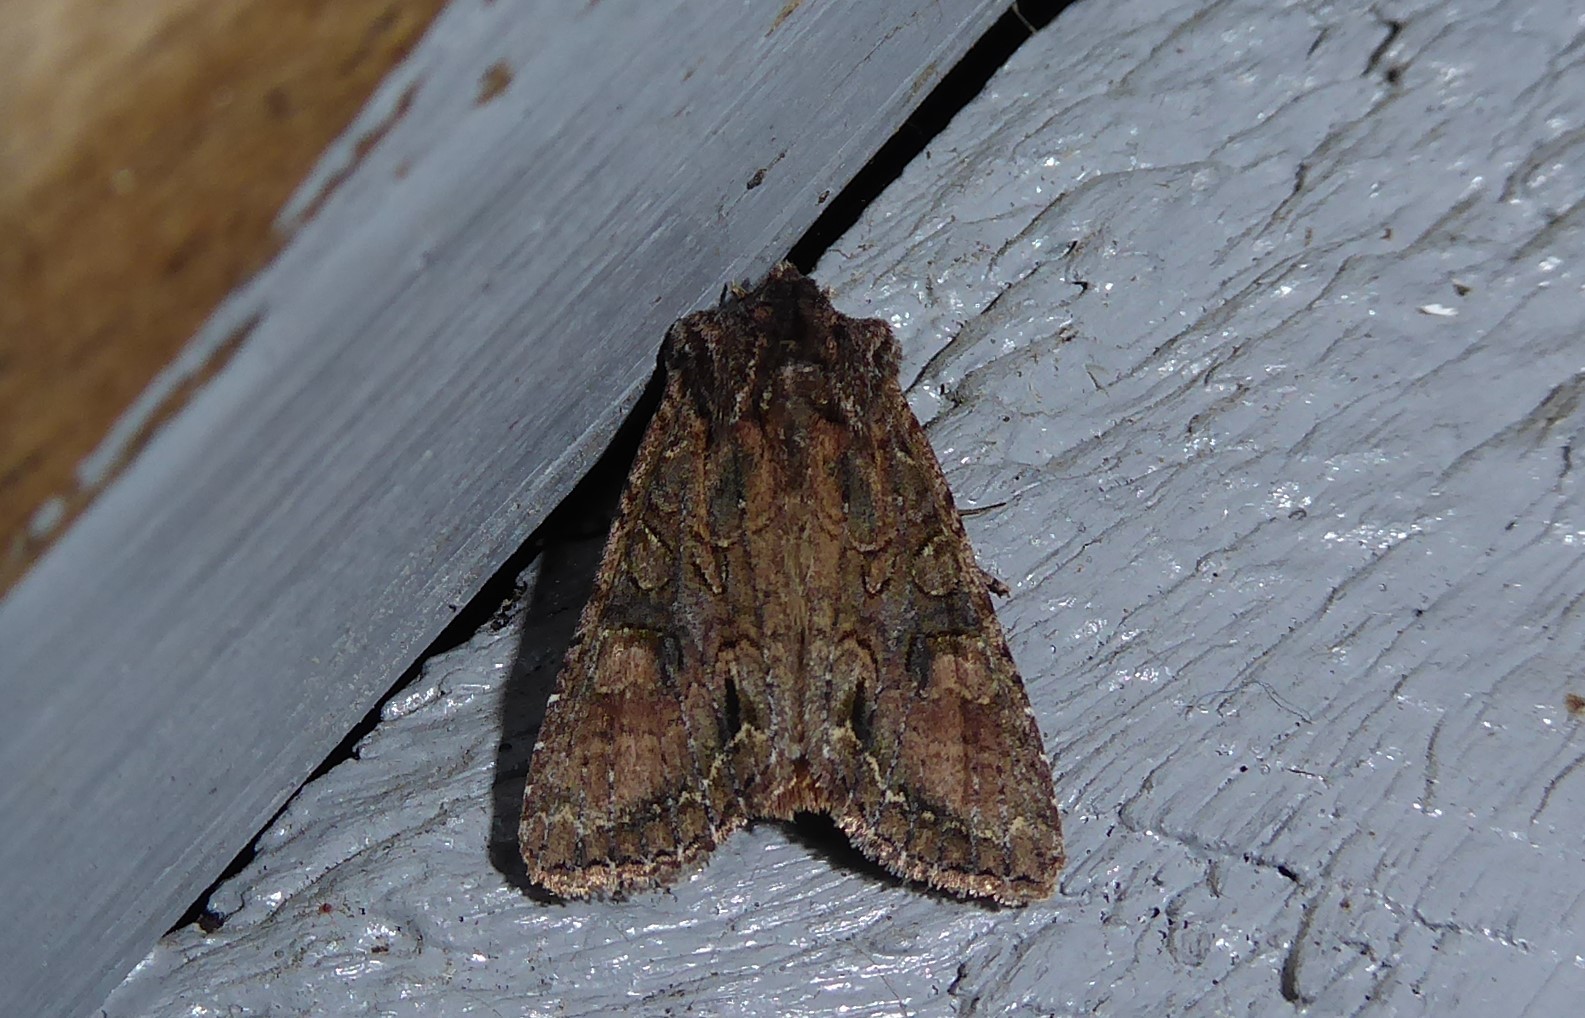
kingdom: Animalia
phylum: Arthropoda
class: Insecta
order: Lepidoptera
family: Noctuidae
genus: Ichneutica
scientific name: Ichneutica mutans
